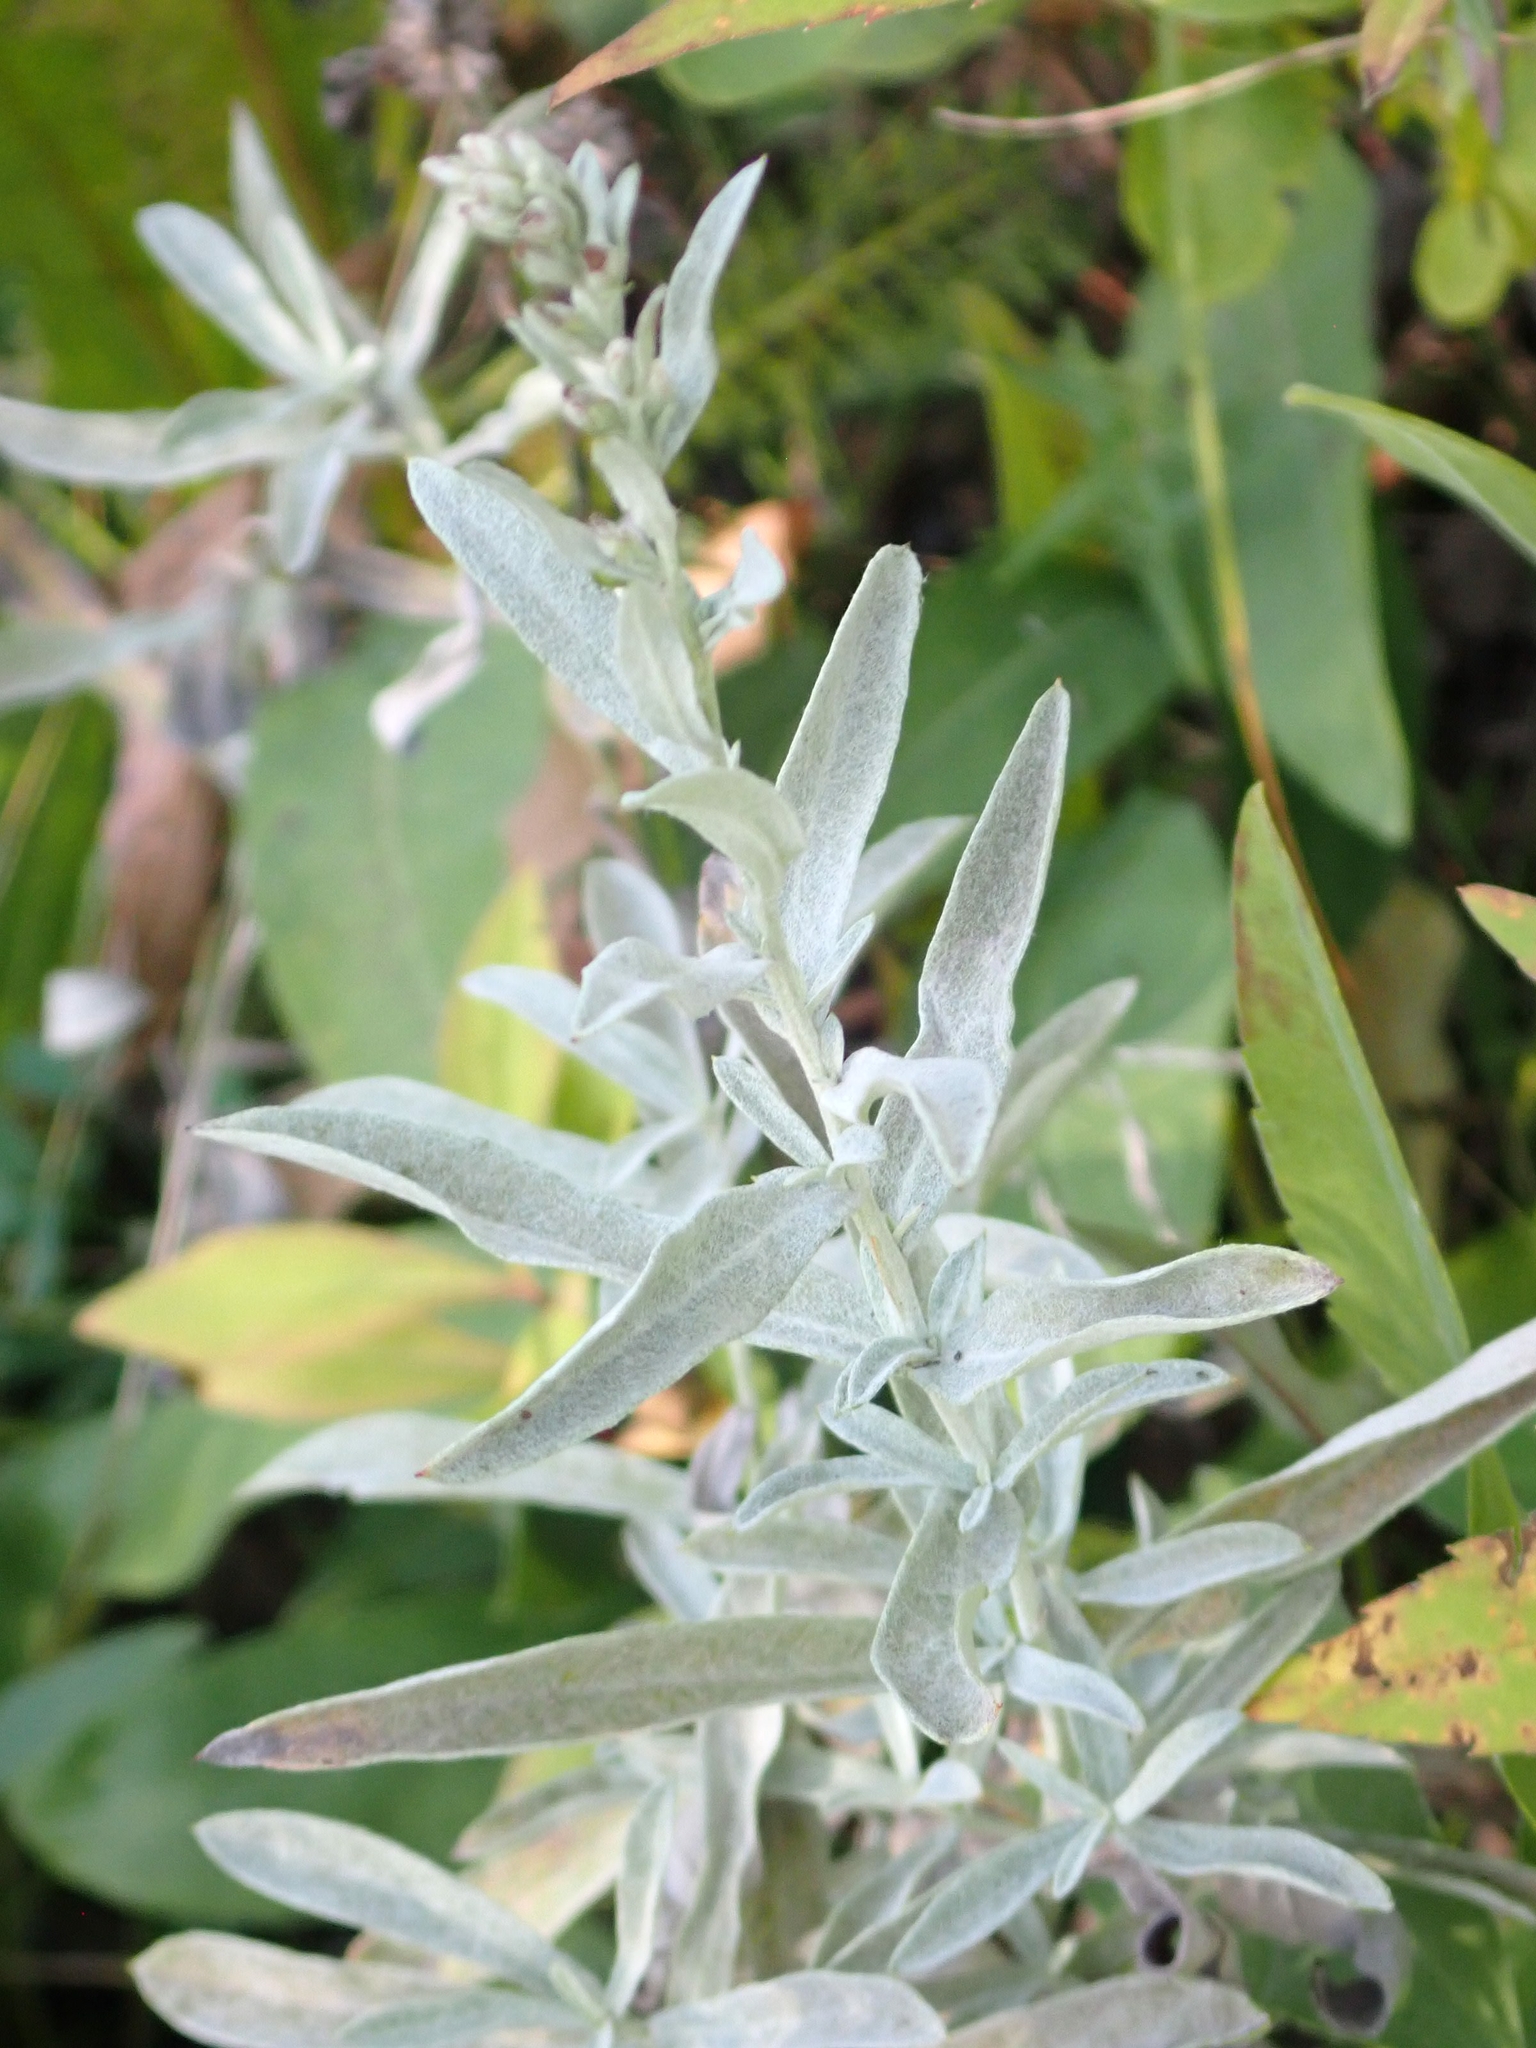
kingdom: Plantae
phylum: Tracheophyta
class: Magnoliopsida
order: Asterales
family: Asteraceae
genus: Artemisia
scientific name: Artemisia ludoviciana
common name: Western mugwort
